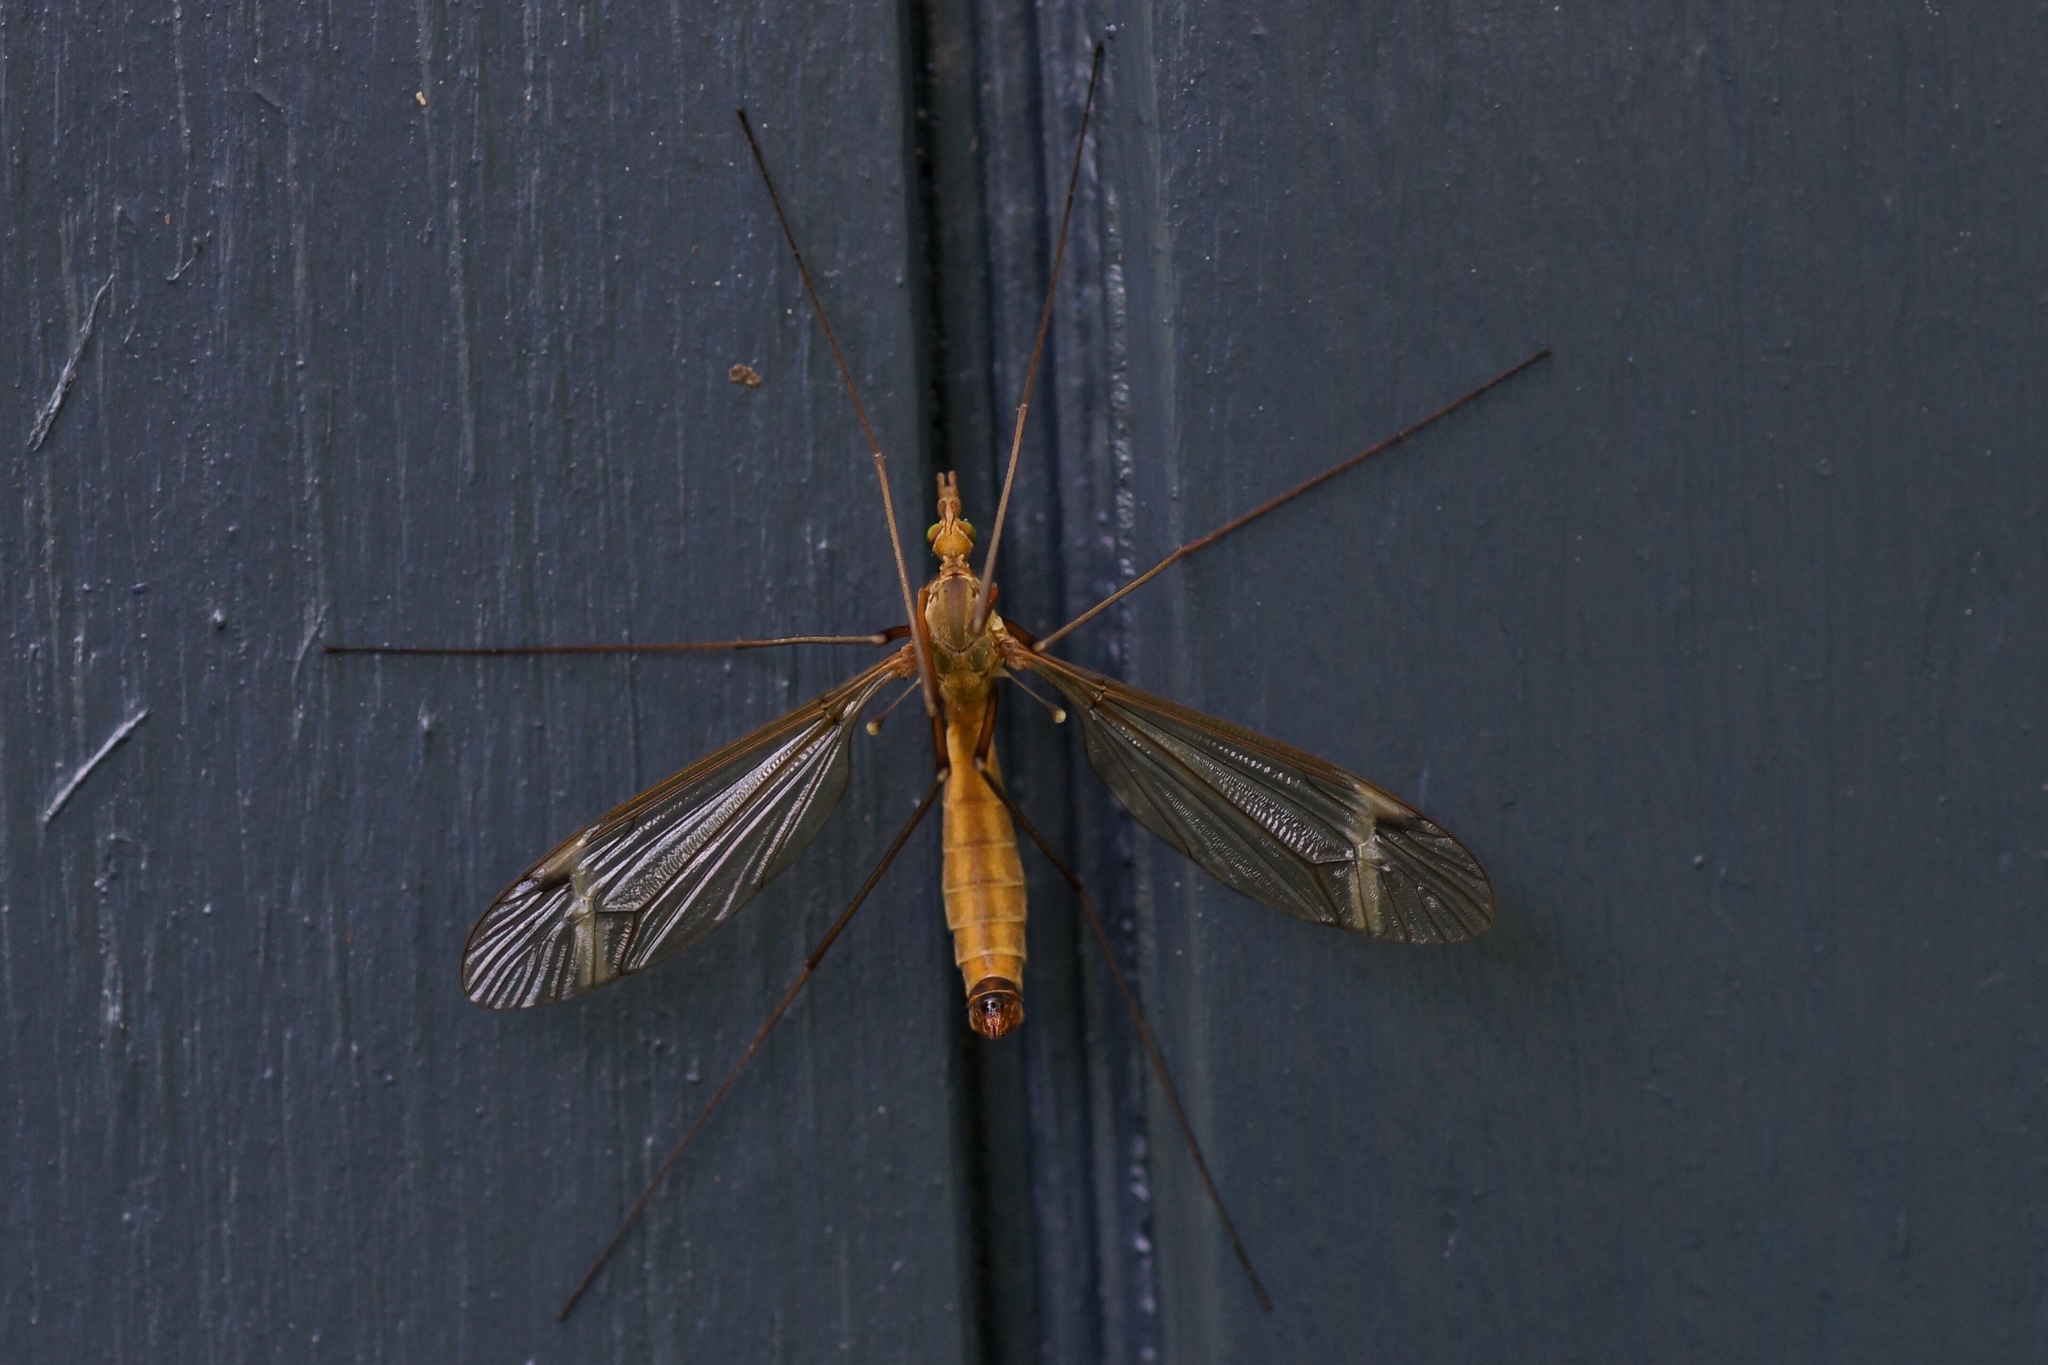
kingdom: Animalia
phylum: Arthropoda
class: Insecta
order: Diptera
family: Tipulidae
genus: Tipula
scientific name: Tipula fascipennis
